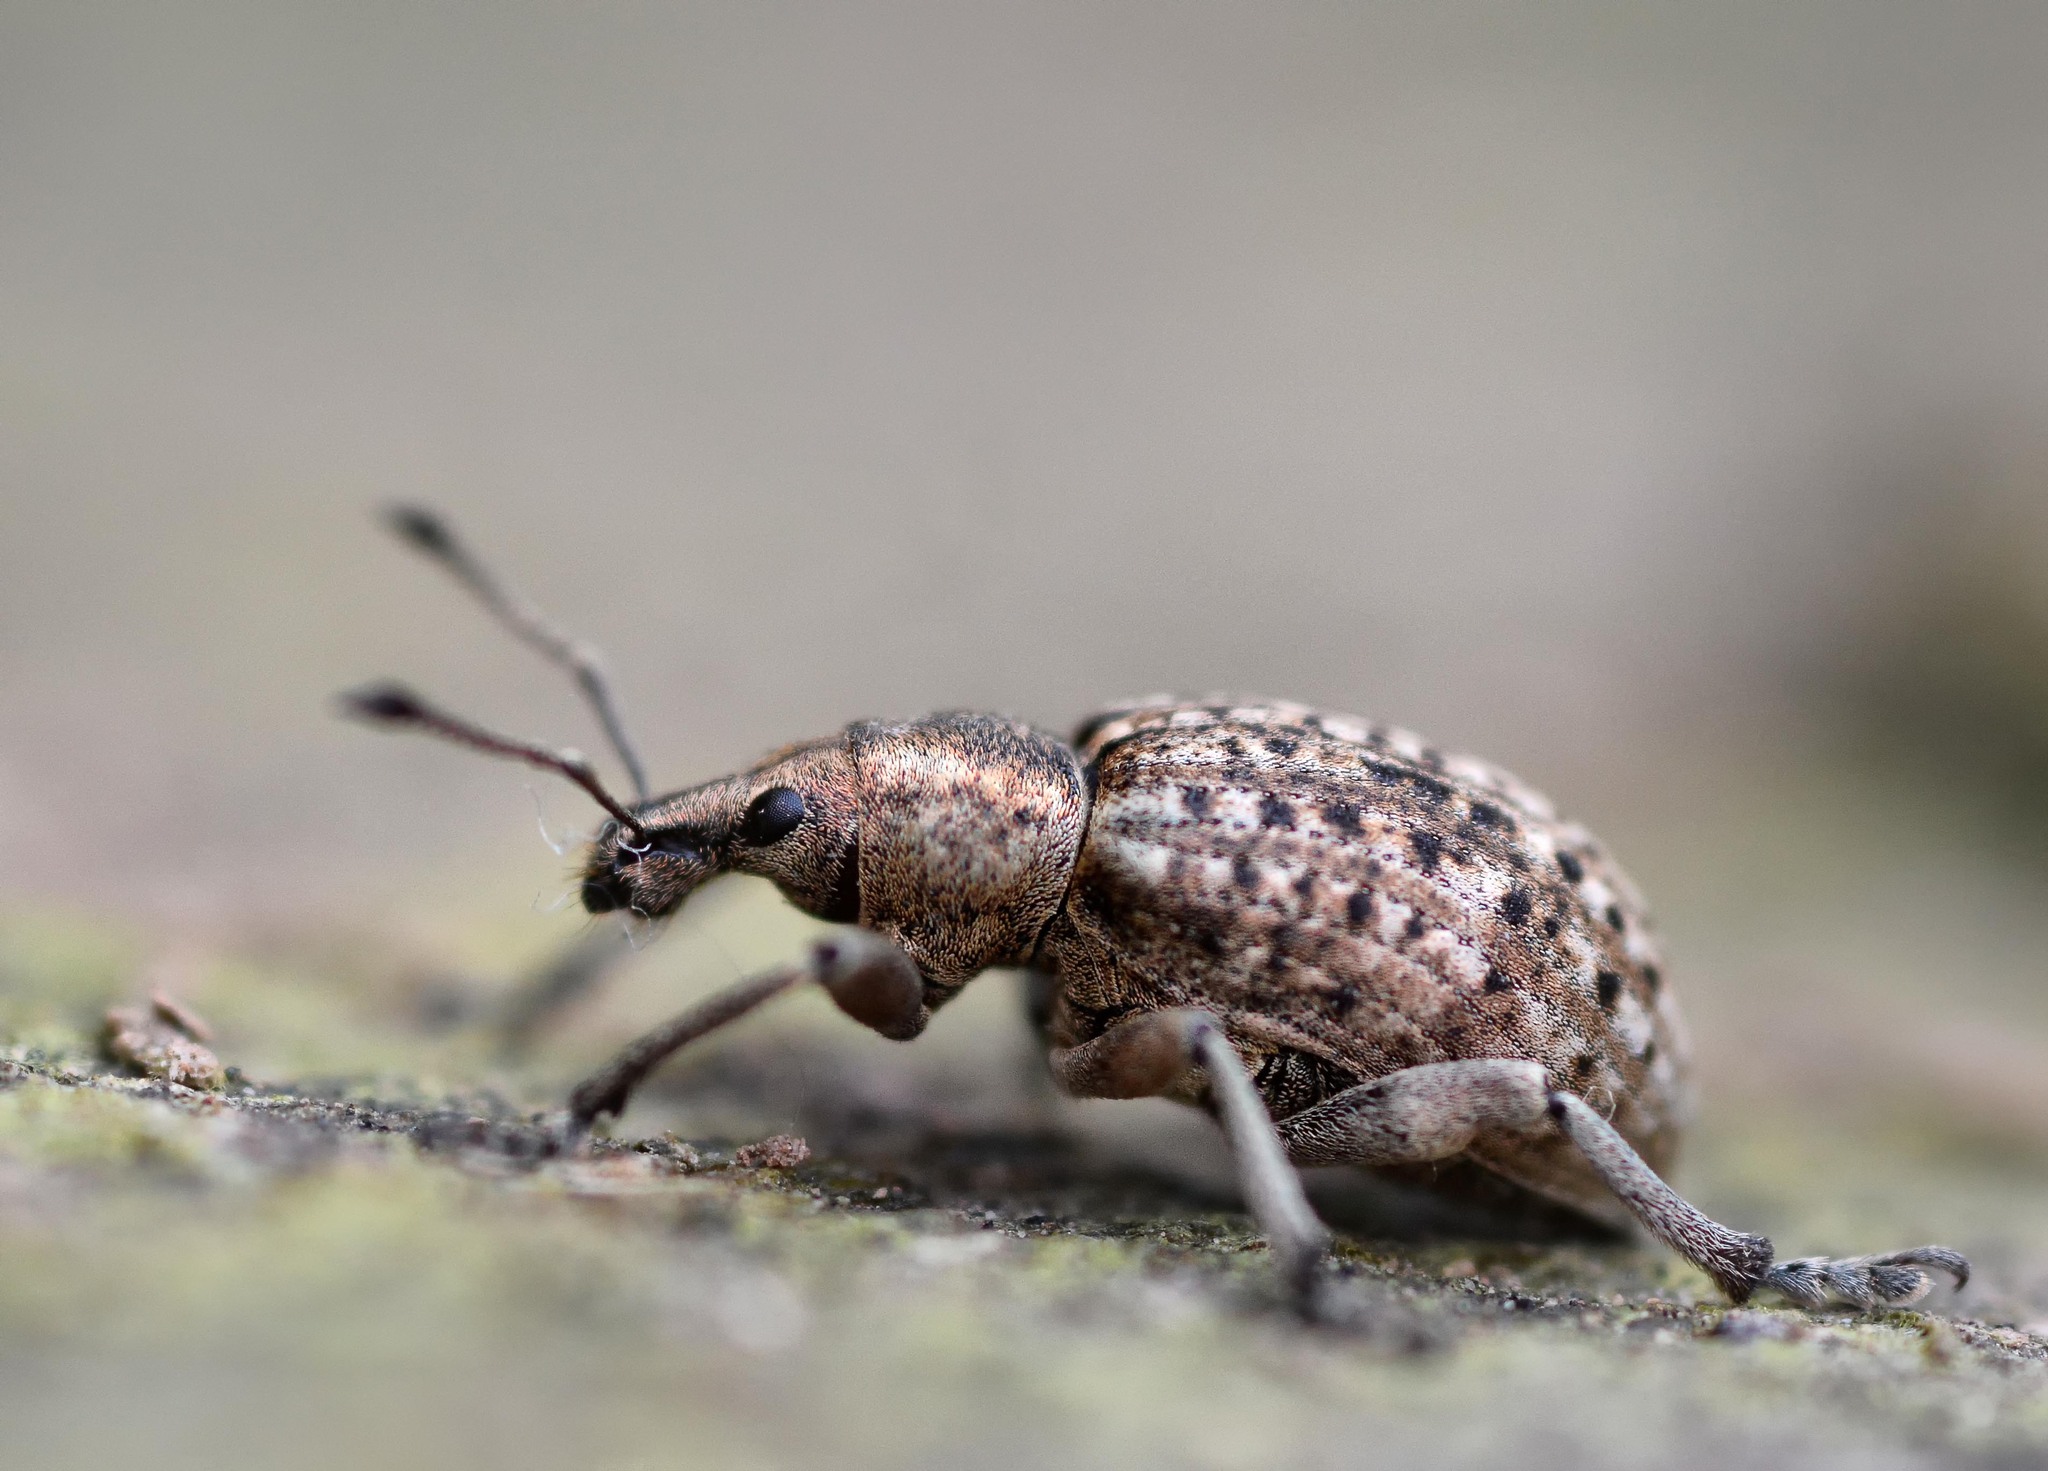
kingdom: Animalia
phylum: Arthropoda
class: Insecta
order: Coleoptera
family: Curculionidae
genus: Liophloeus
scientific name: Liophloeus tessulatus
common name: Weevil
